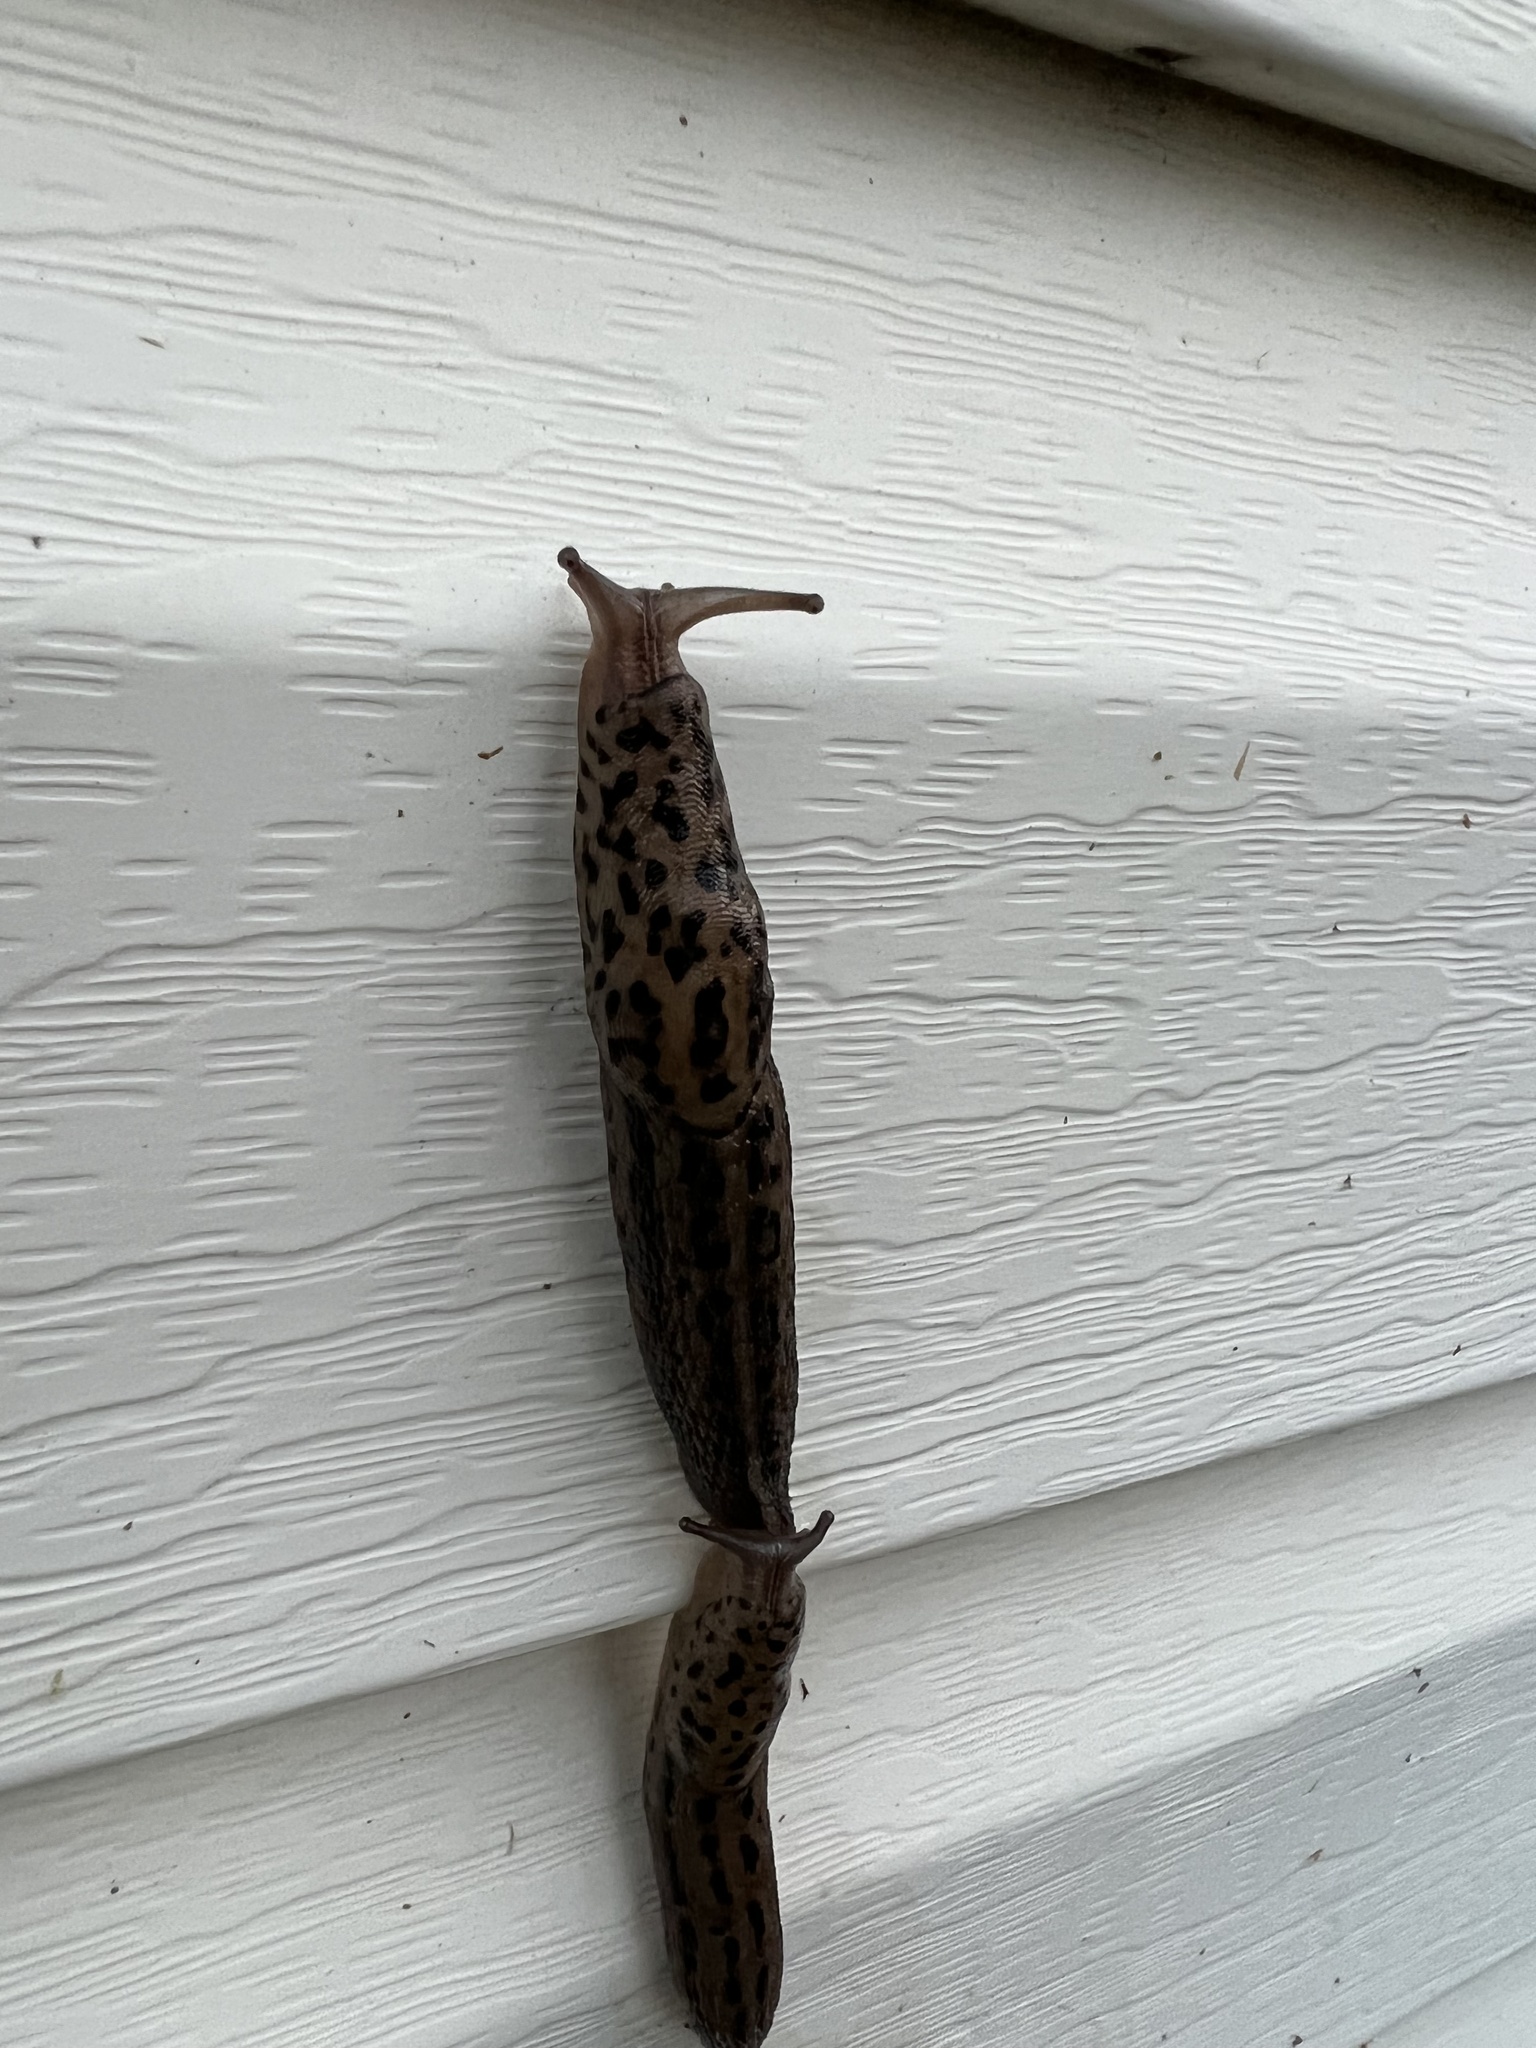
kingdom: Animalia
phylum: Mollusca
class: Gastropoda
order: Stylommatophora
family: Limacidae
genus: Limax
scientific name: Limax maximus
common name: Great grey slug
